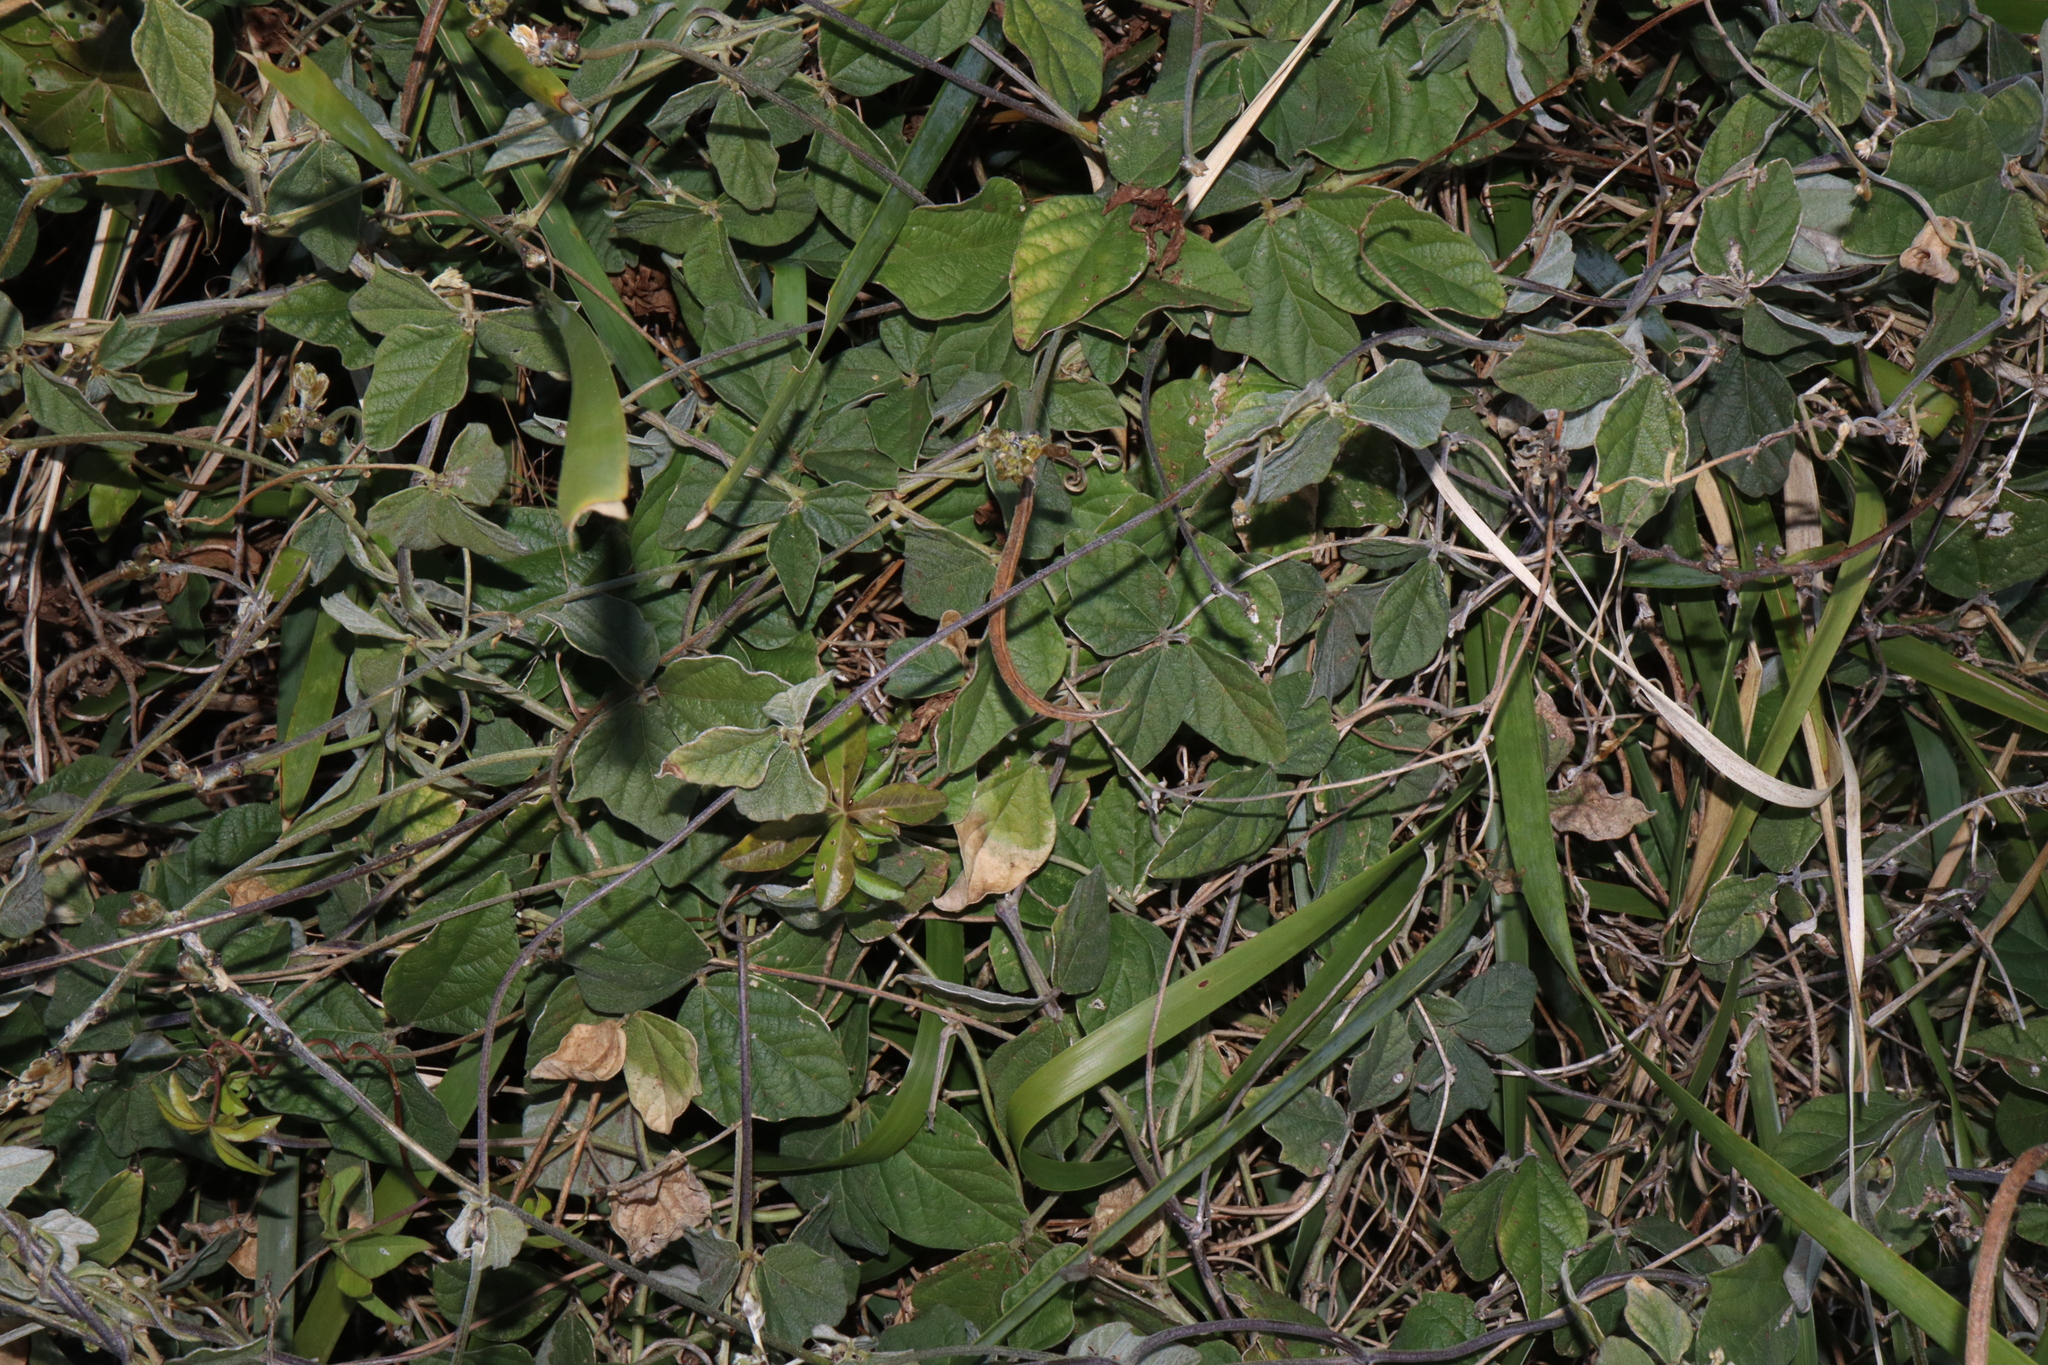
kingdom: Plantae
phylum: Tracheophyta
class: Magnoliopsida
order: Fabales
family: Fabaceae
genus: Macroptilium
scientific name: Macroptilium atropurpureum
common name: Purple bushbean
